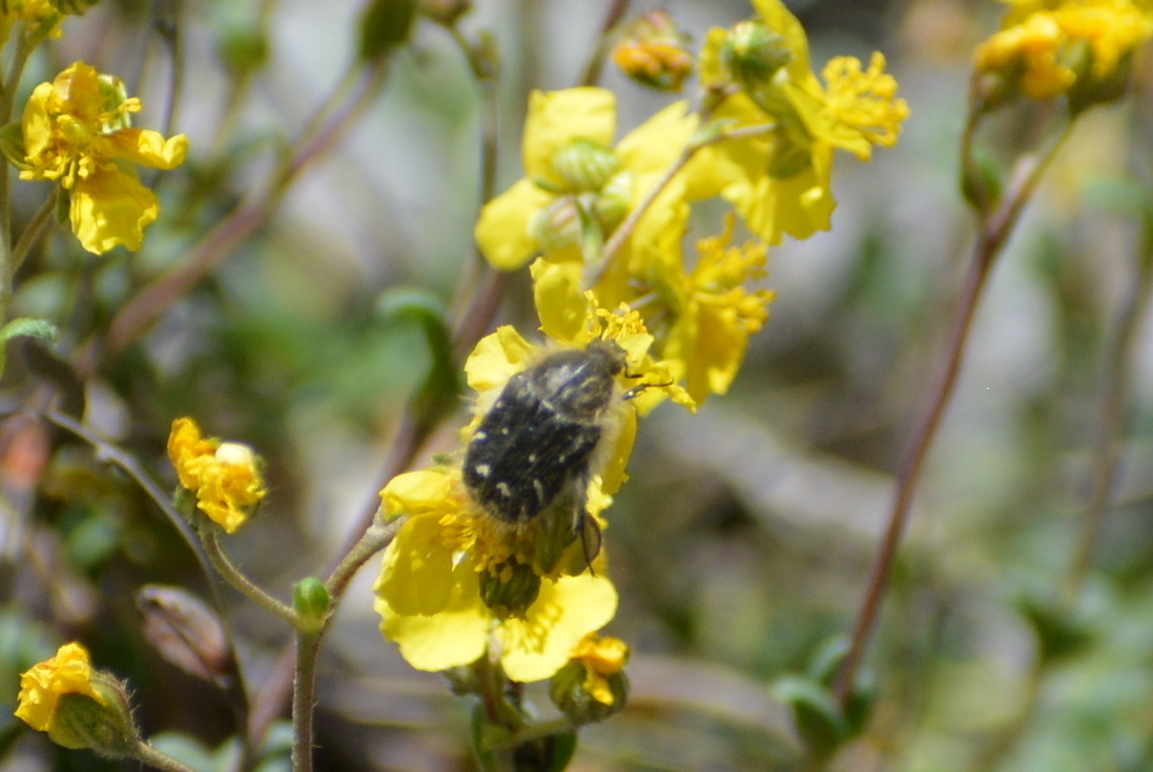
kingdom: Animalia
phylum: Arthropoda
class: Insecta
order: Coleoptera
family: Scarabaeidae
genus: Tropinota
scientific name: Tropinota hirta
